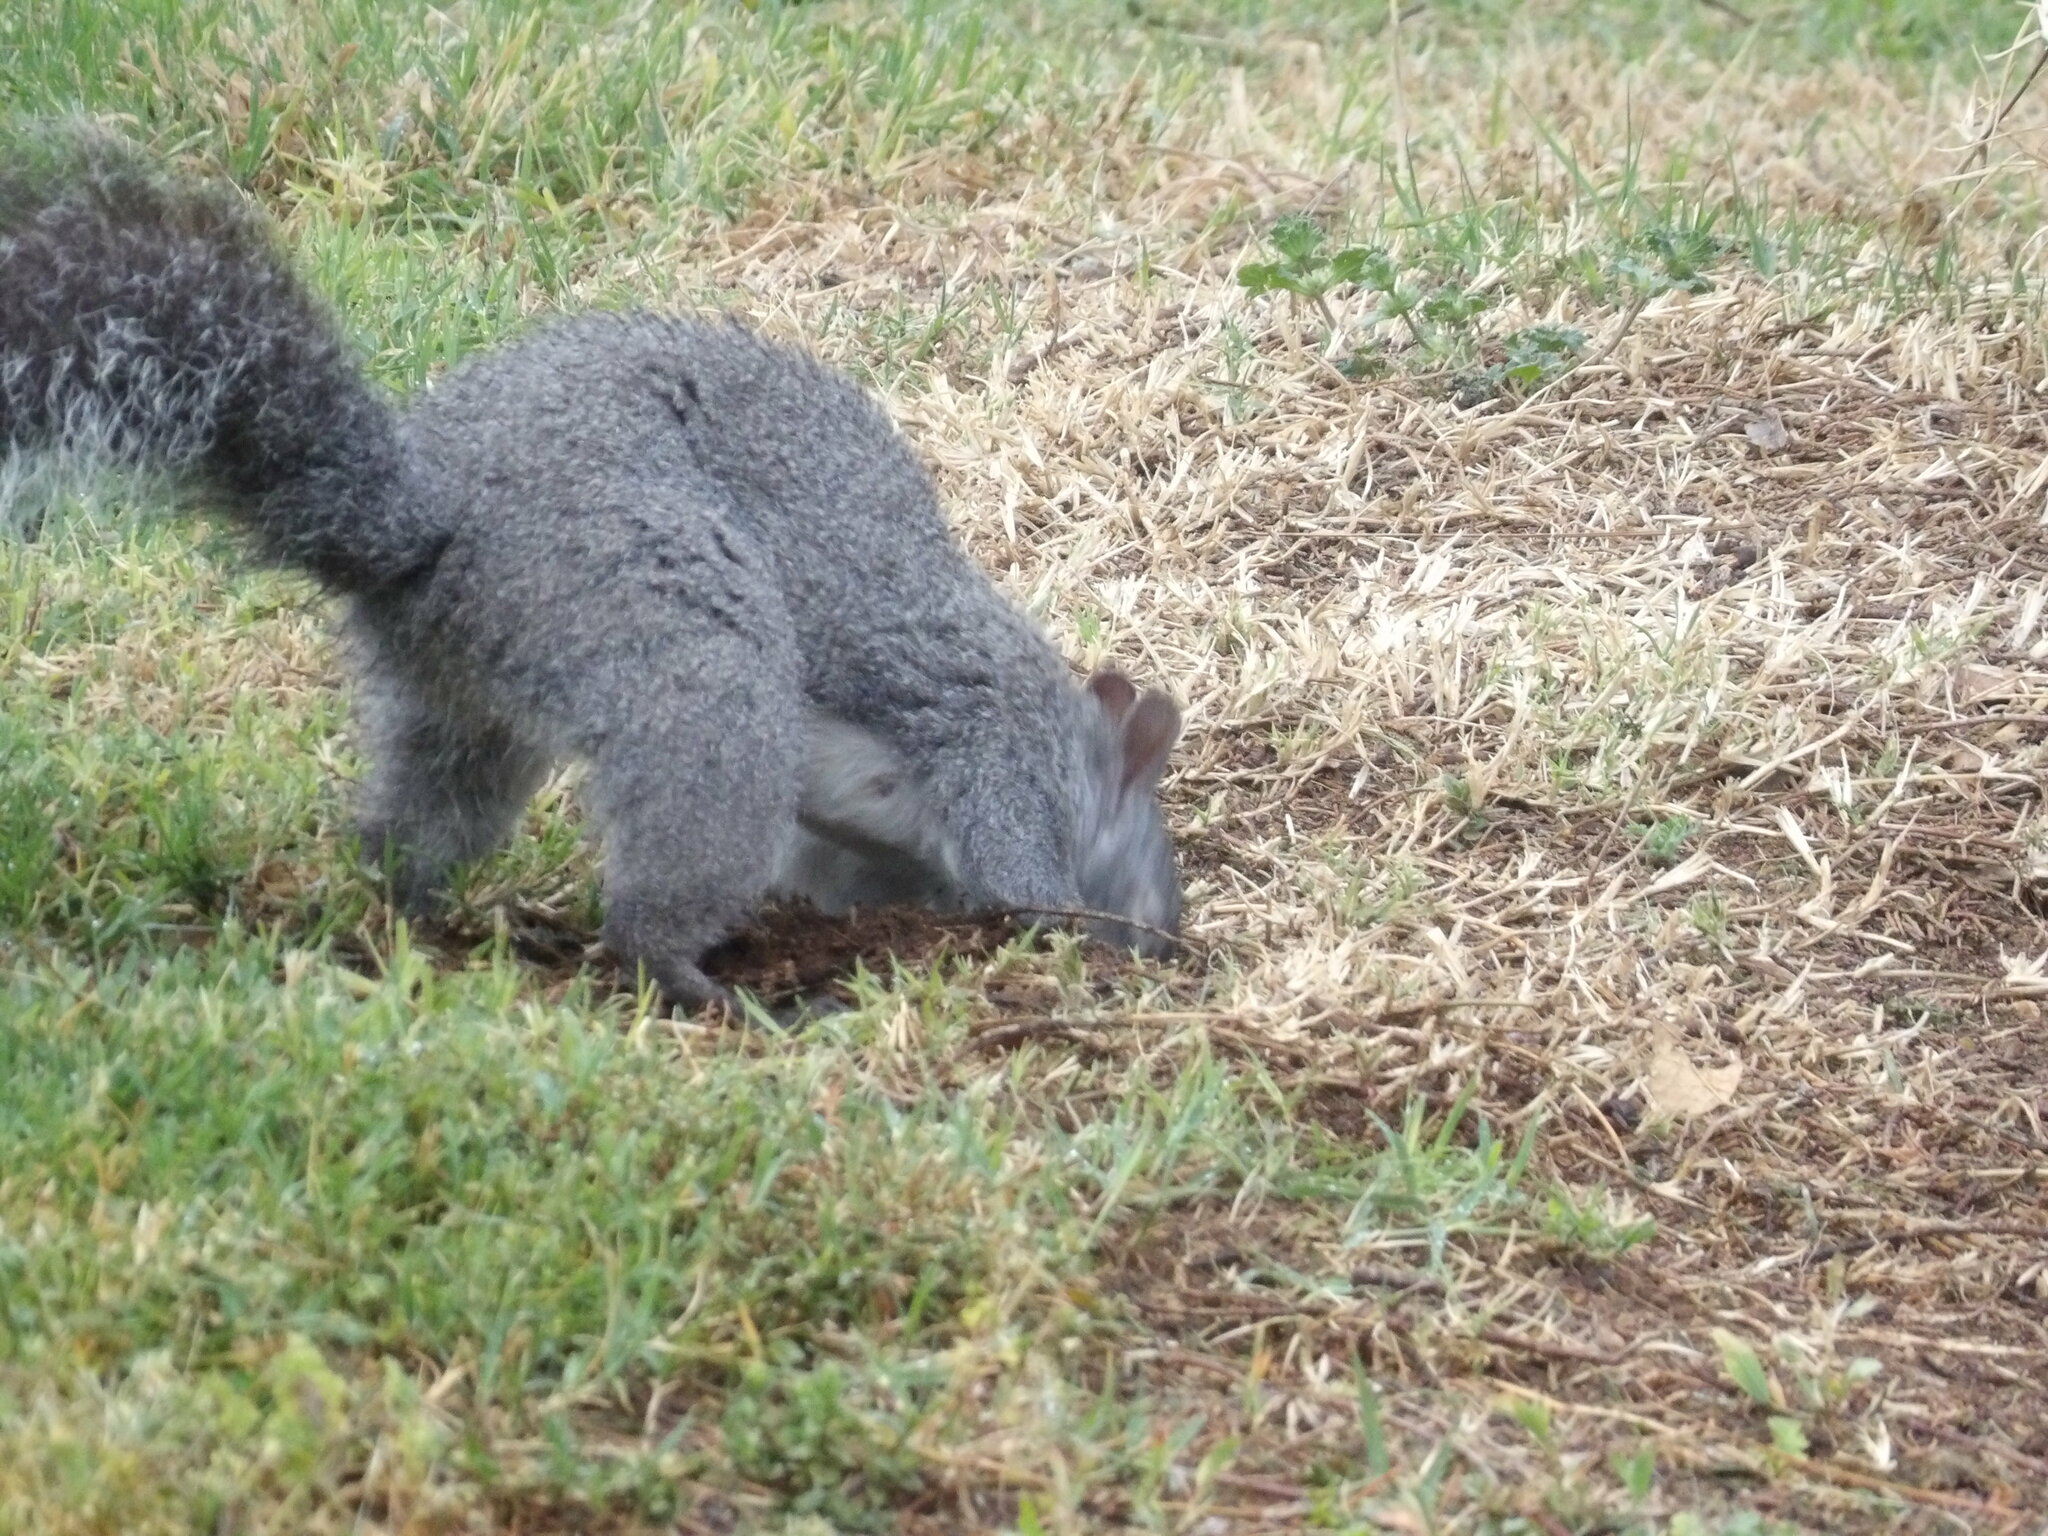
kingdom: Animalia
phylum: Chordata
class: Mammalia
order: Rodentia
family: Sciuridae
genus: Sciurus
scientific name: Sciurus griseus
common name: Western gray squirrel
